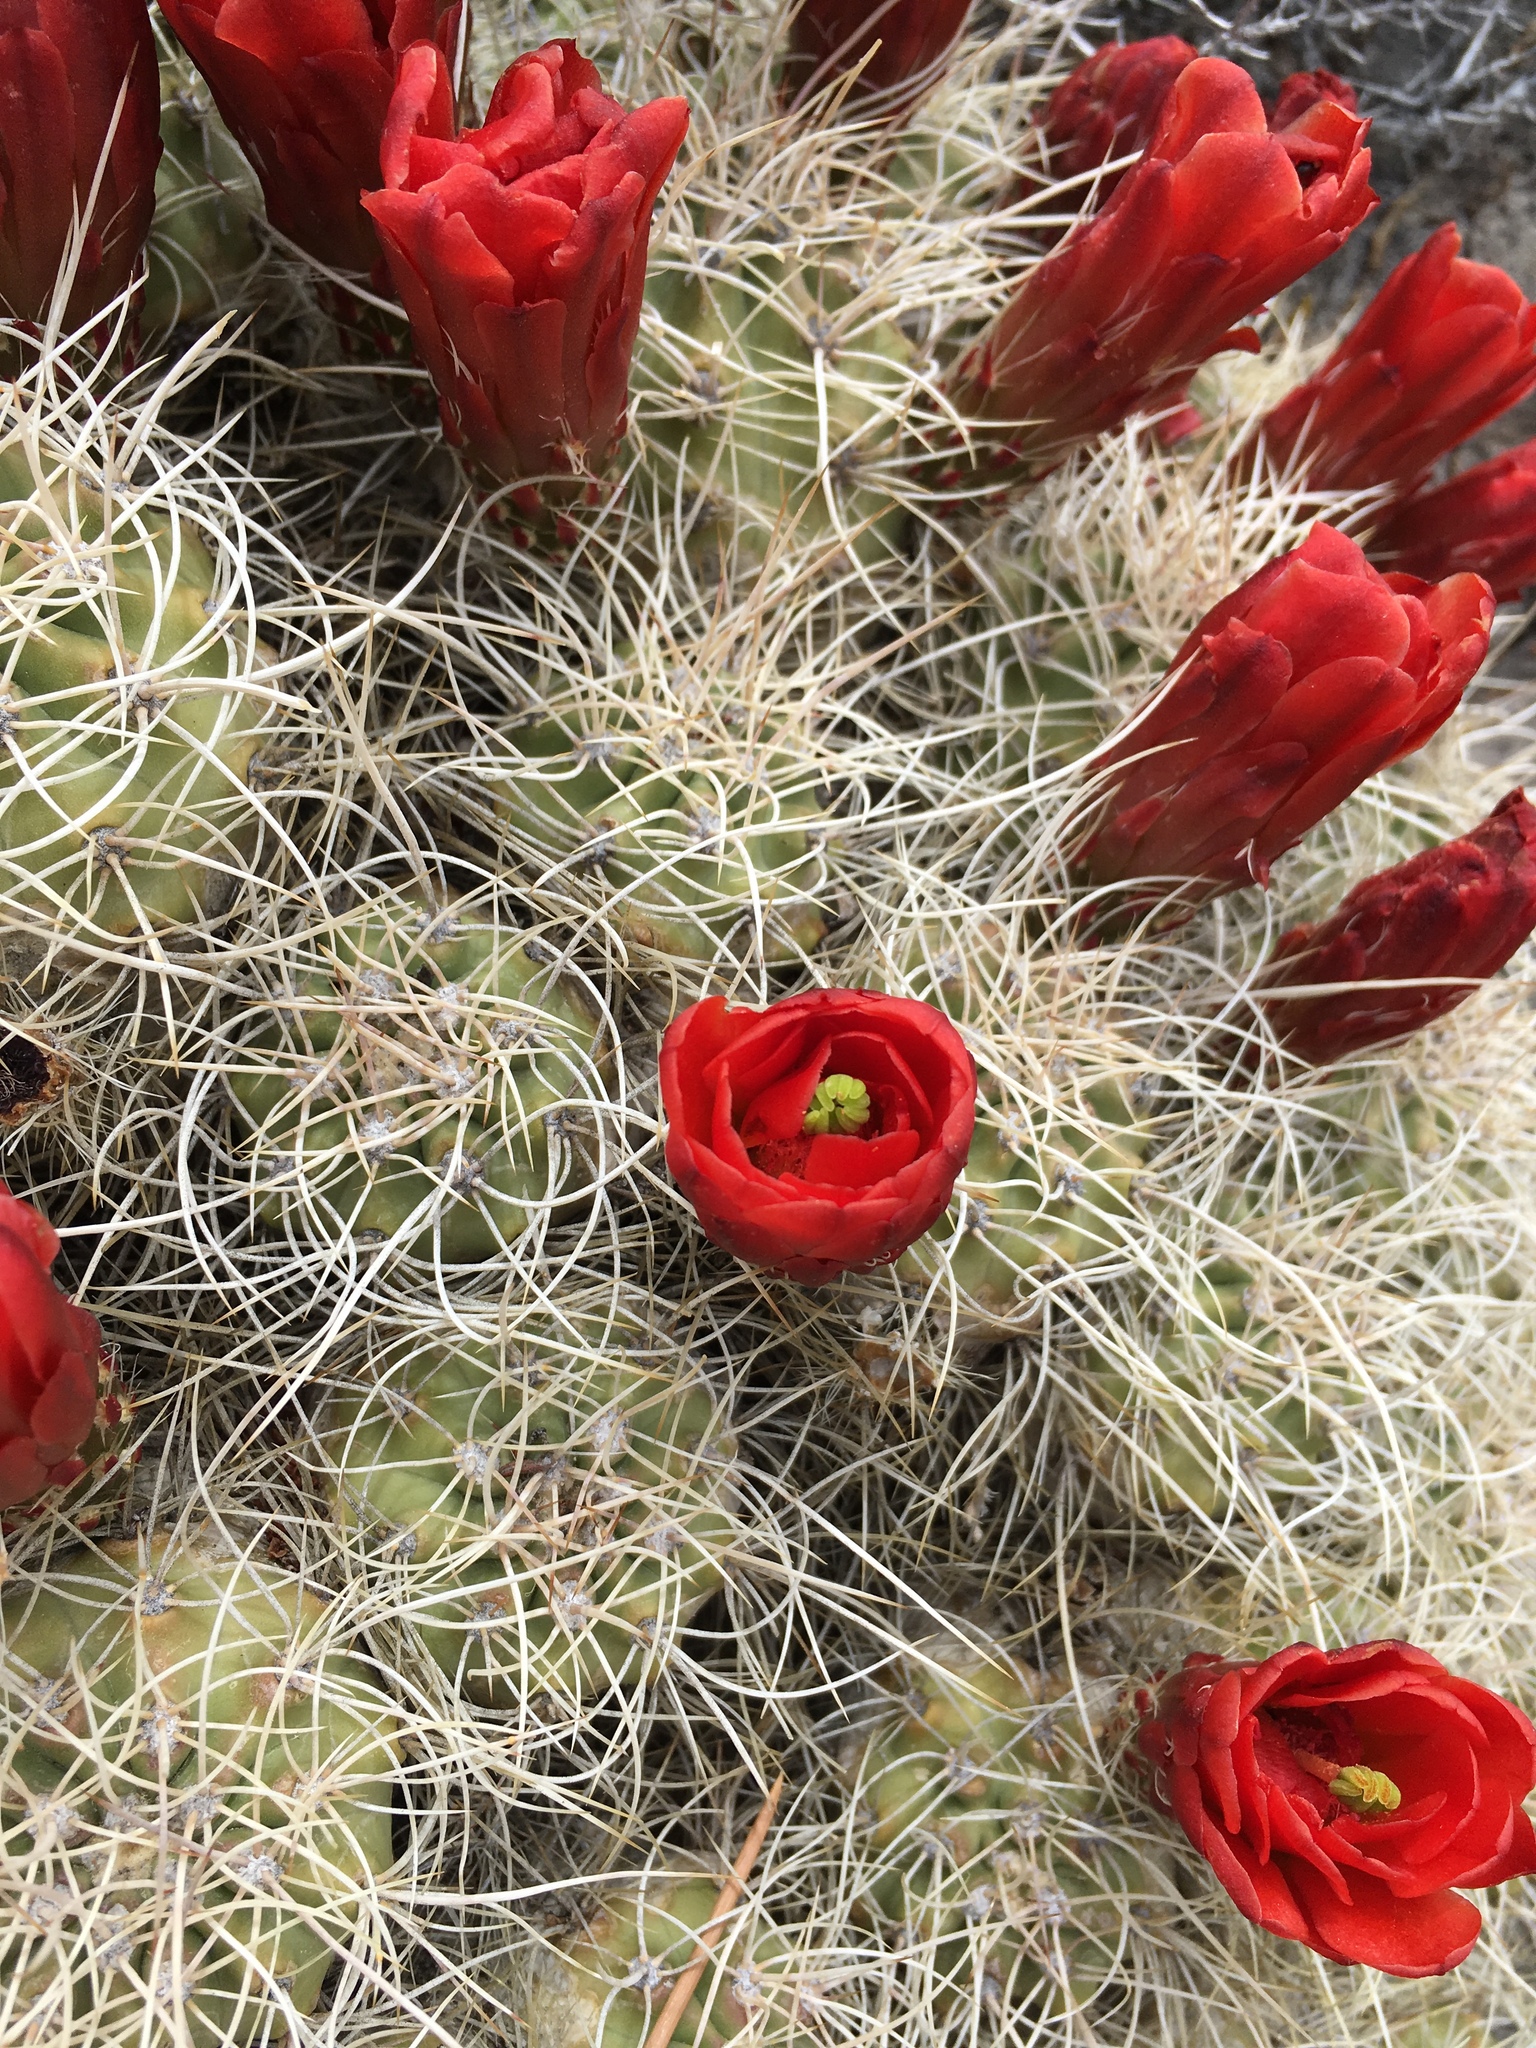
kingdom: Plantae
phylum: Tracheophyta
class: Magnoliopsida
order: Caryophyllales
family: Cactaceae
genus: Echinocereus
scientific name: Echinocereus triglochidiatus
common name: Claretcup hedgehog
